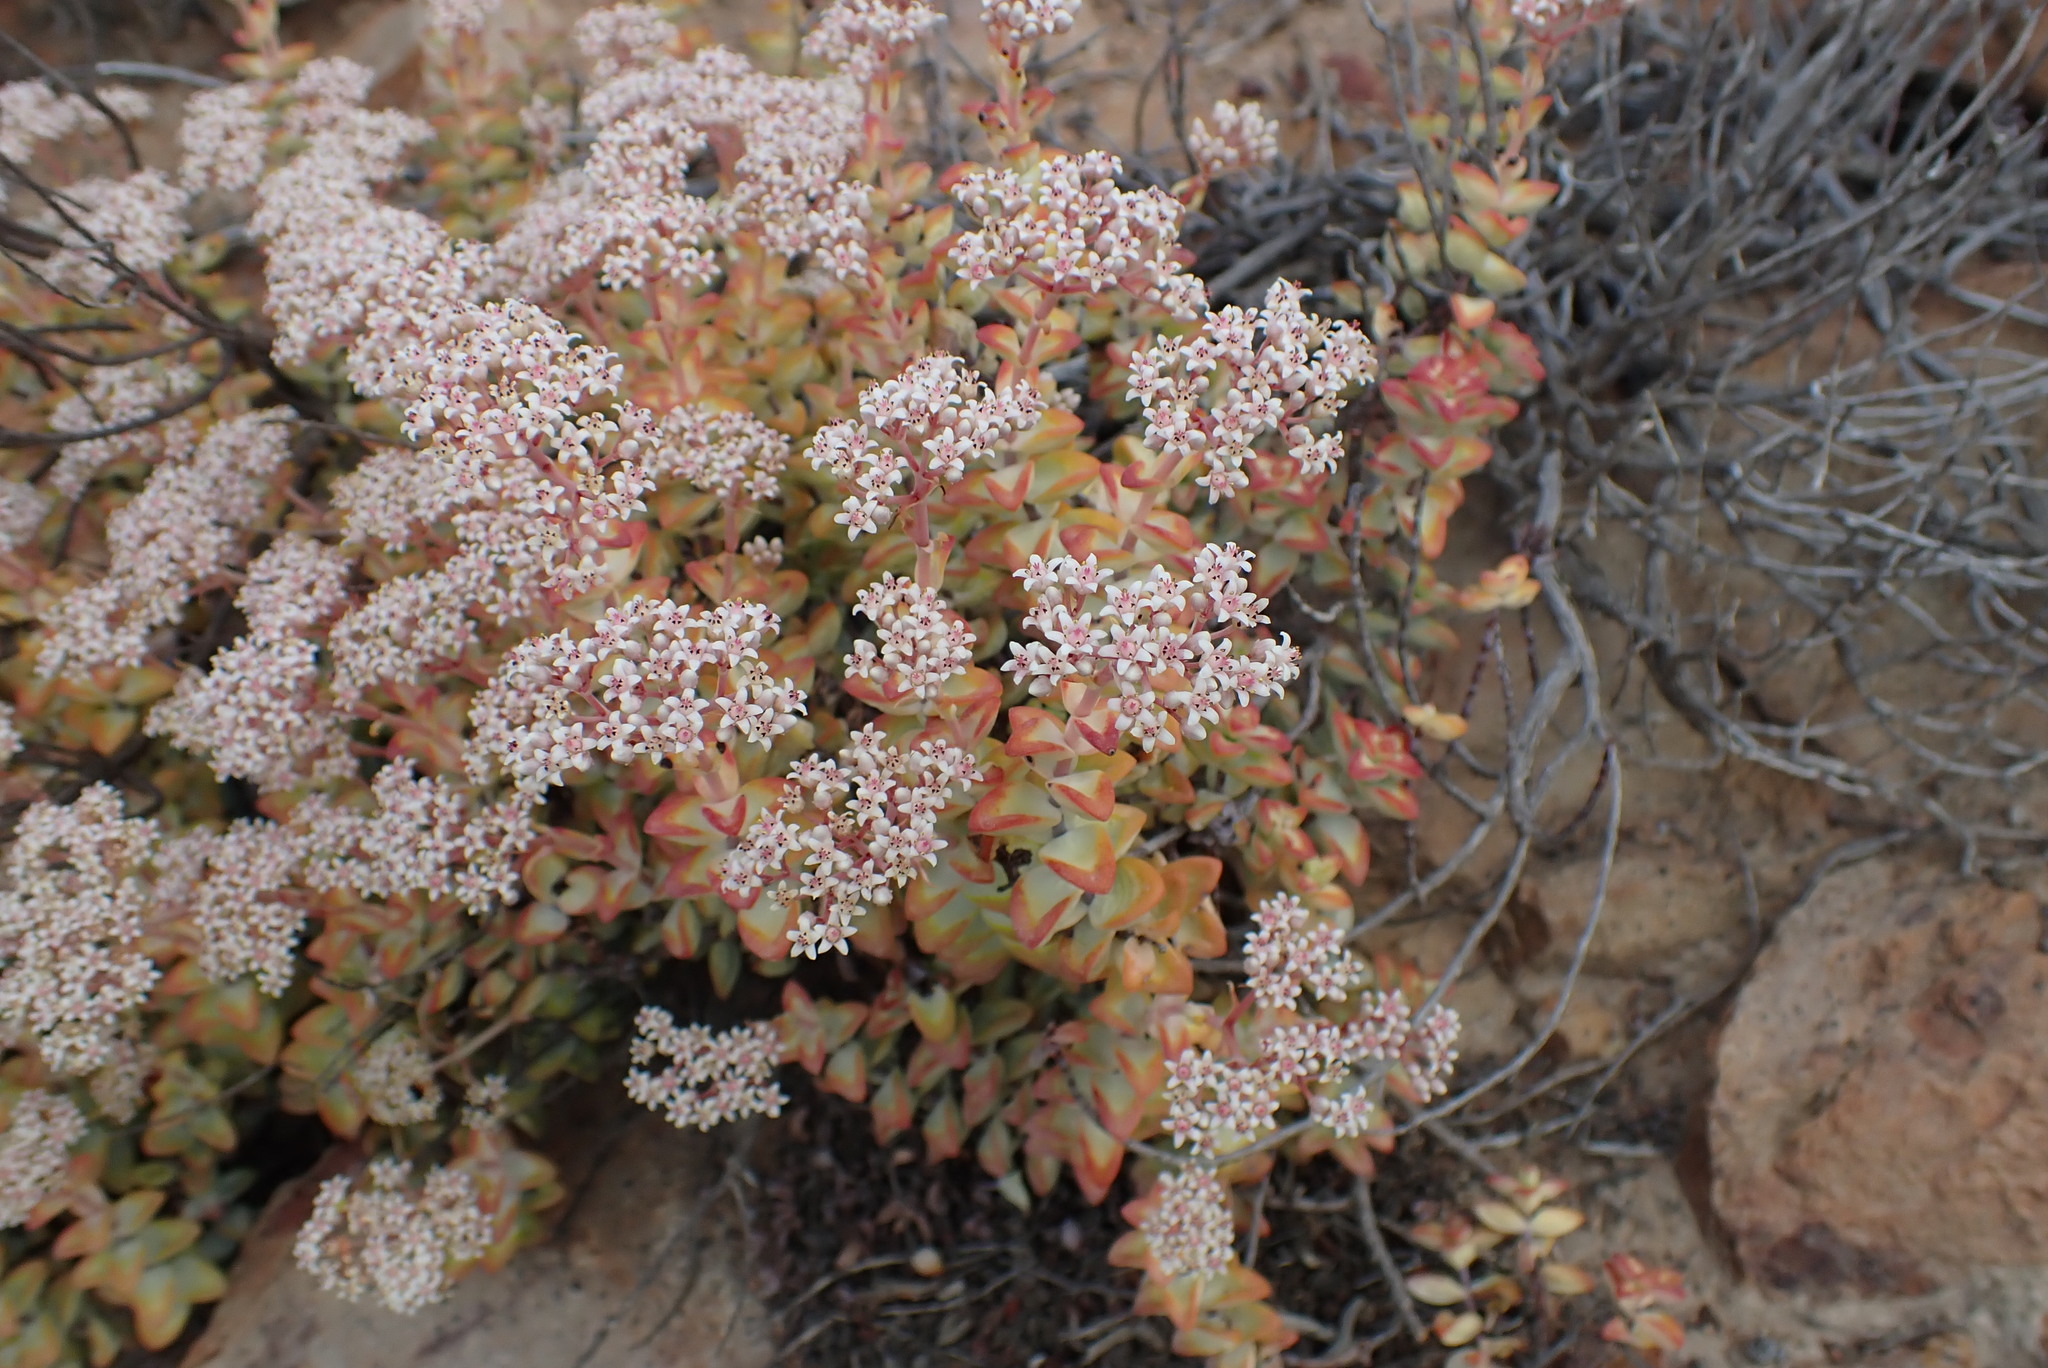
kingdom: Plantae
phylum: Tracheophyta
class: Magnoliopsida
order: Saxifragales
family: Crassulaceae
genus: Crassula
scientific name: Crassula rupestris
